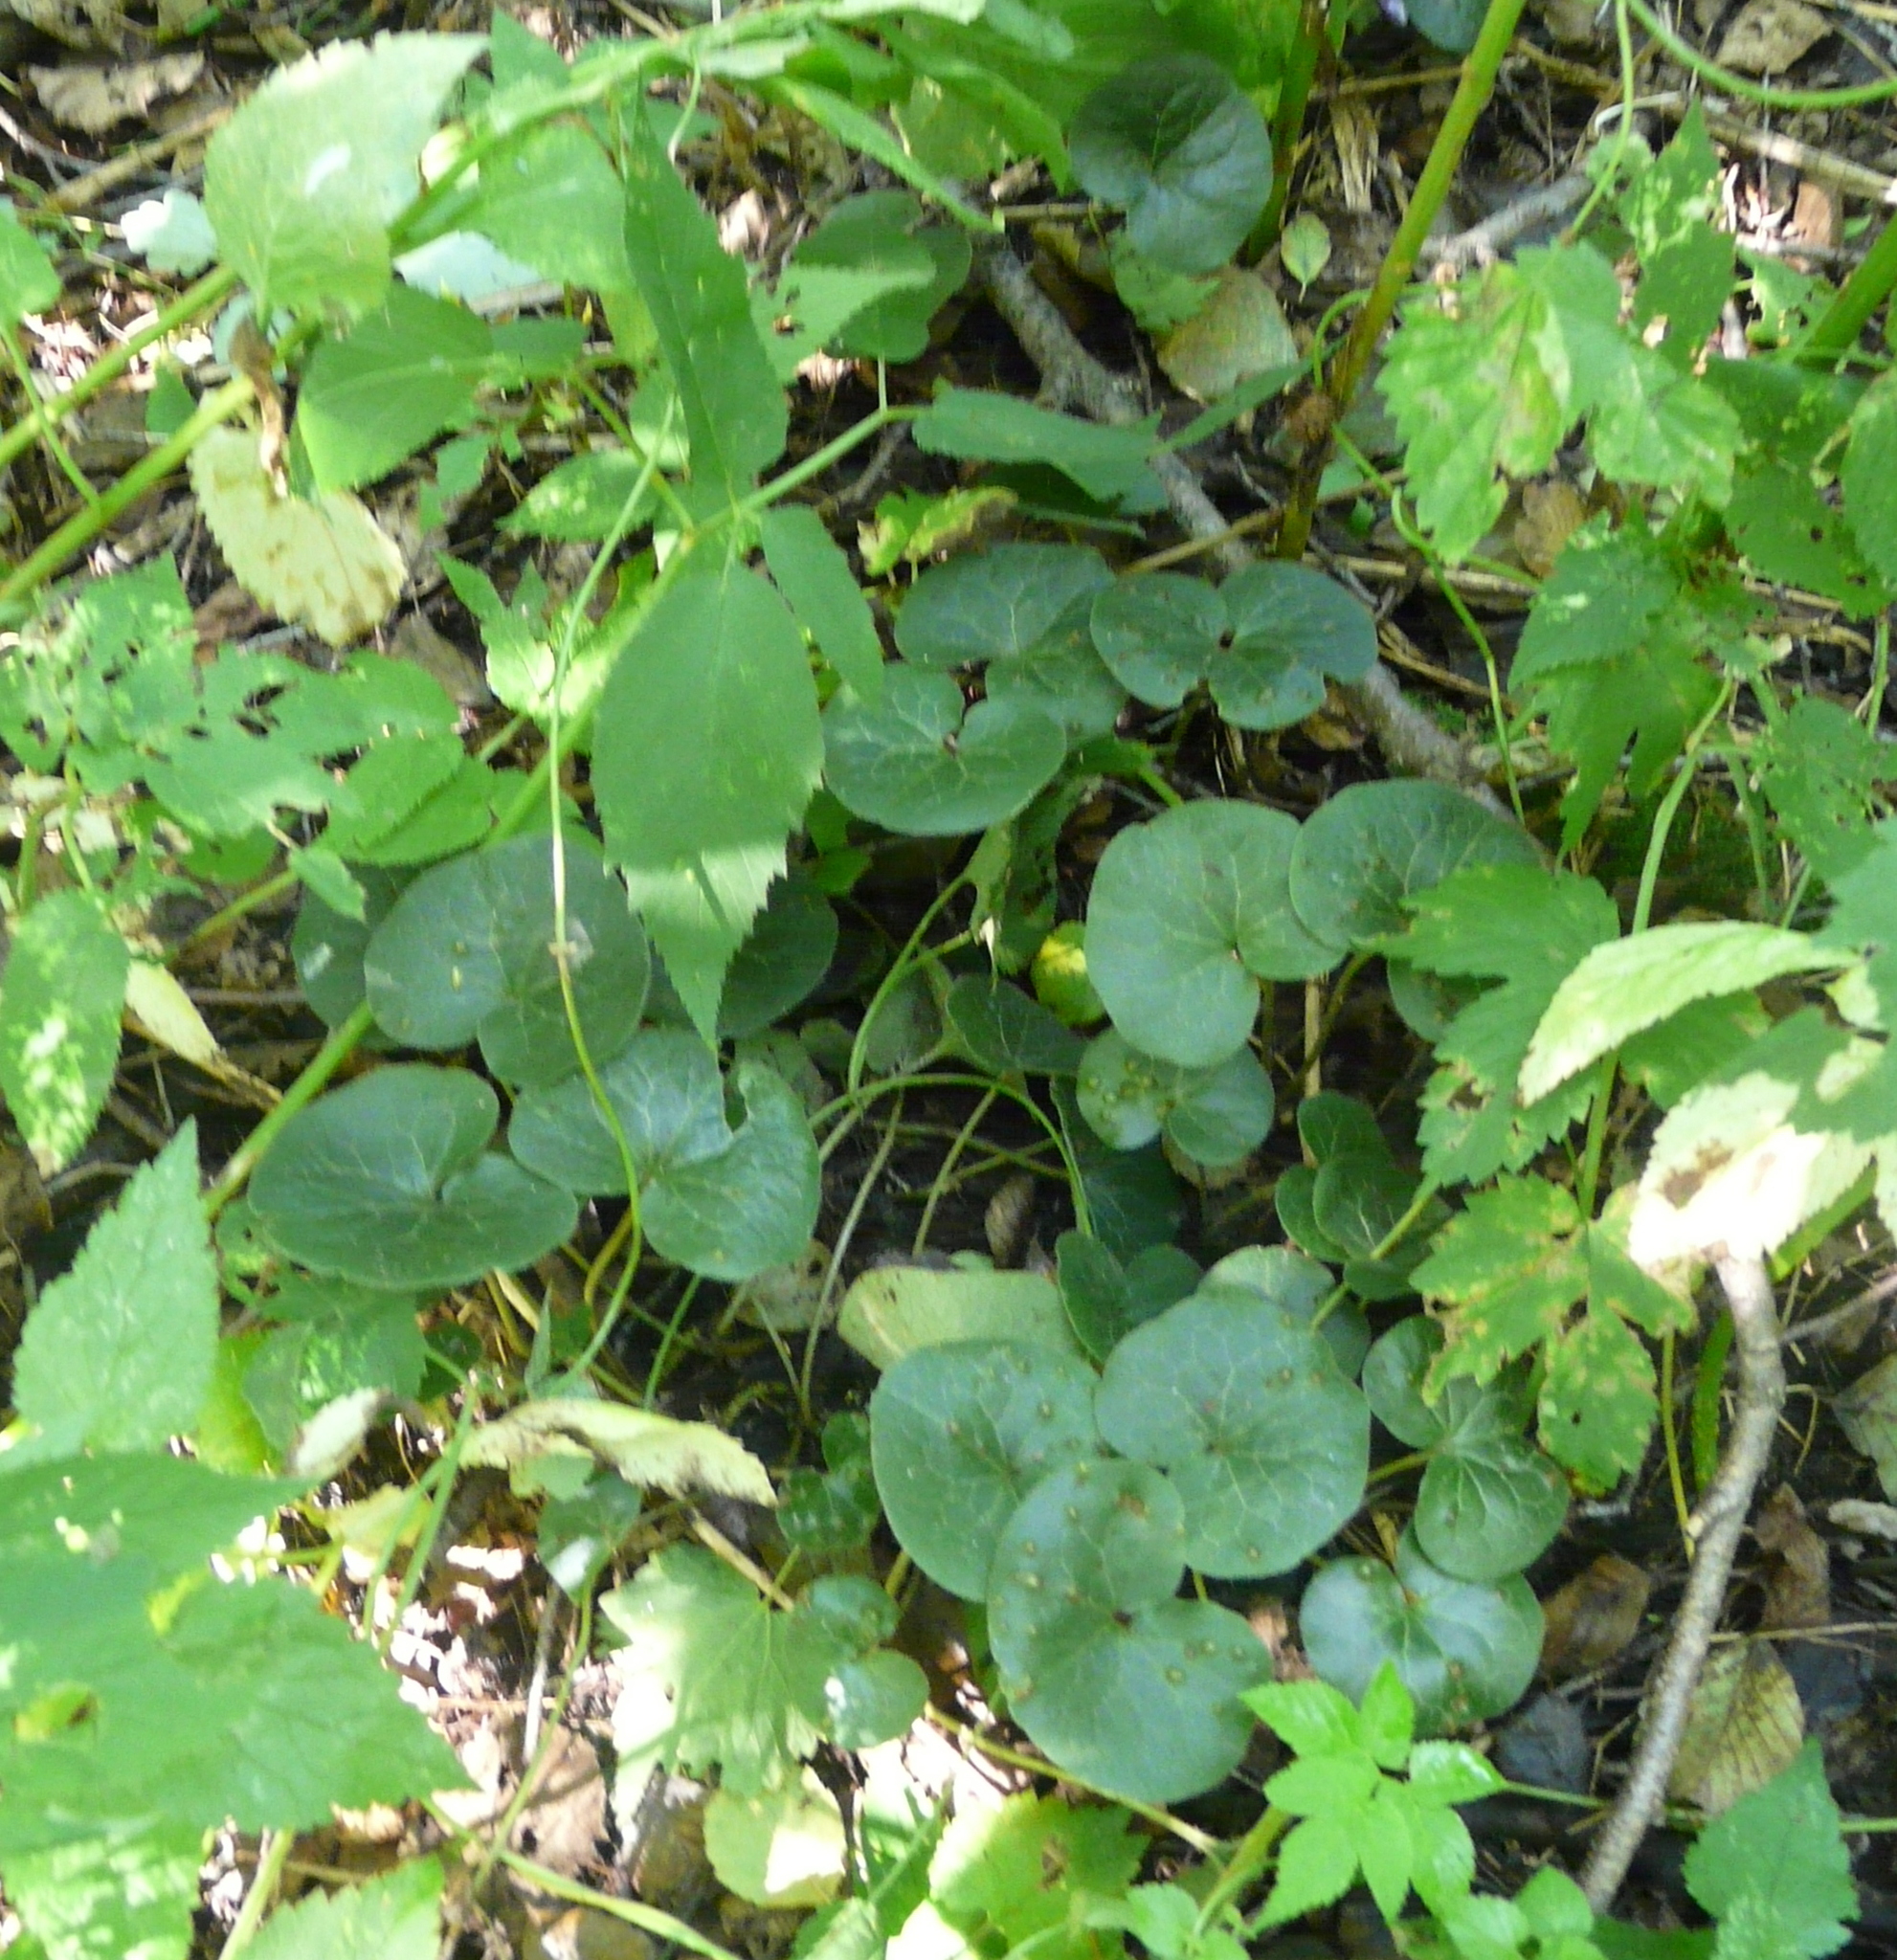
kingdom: Plantae
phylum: Tracheophyta
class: Magnoliopsida
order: Piperales
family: Aristolochiaceae
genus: Asarum
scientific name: Asarum europaeum
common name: Asarabacca
